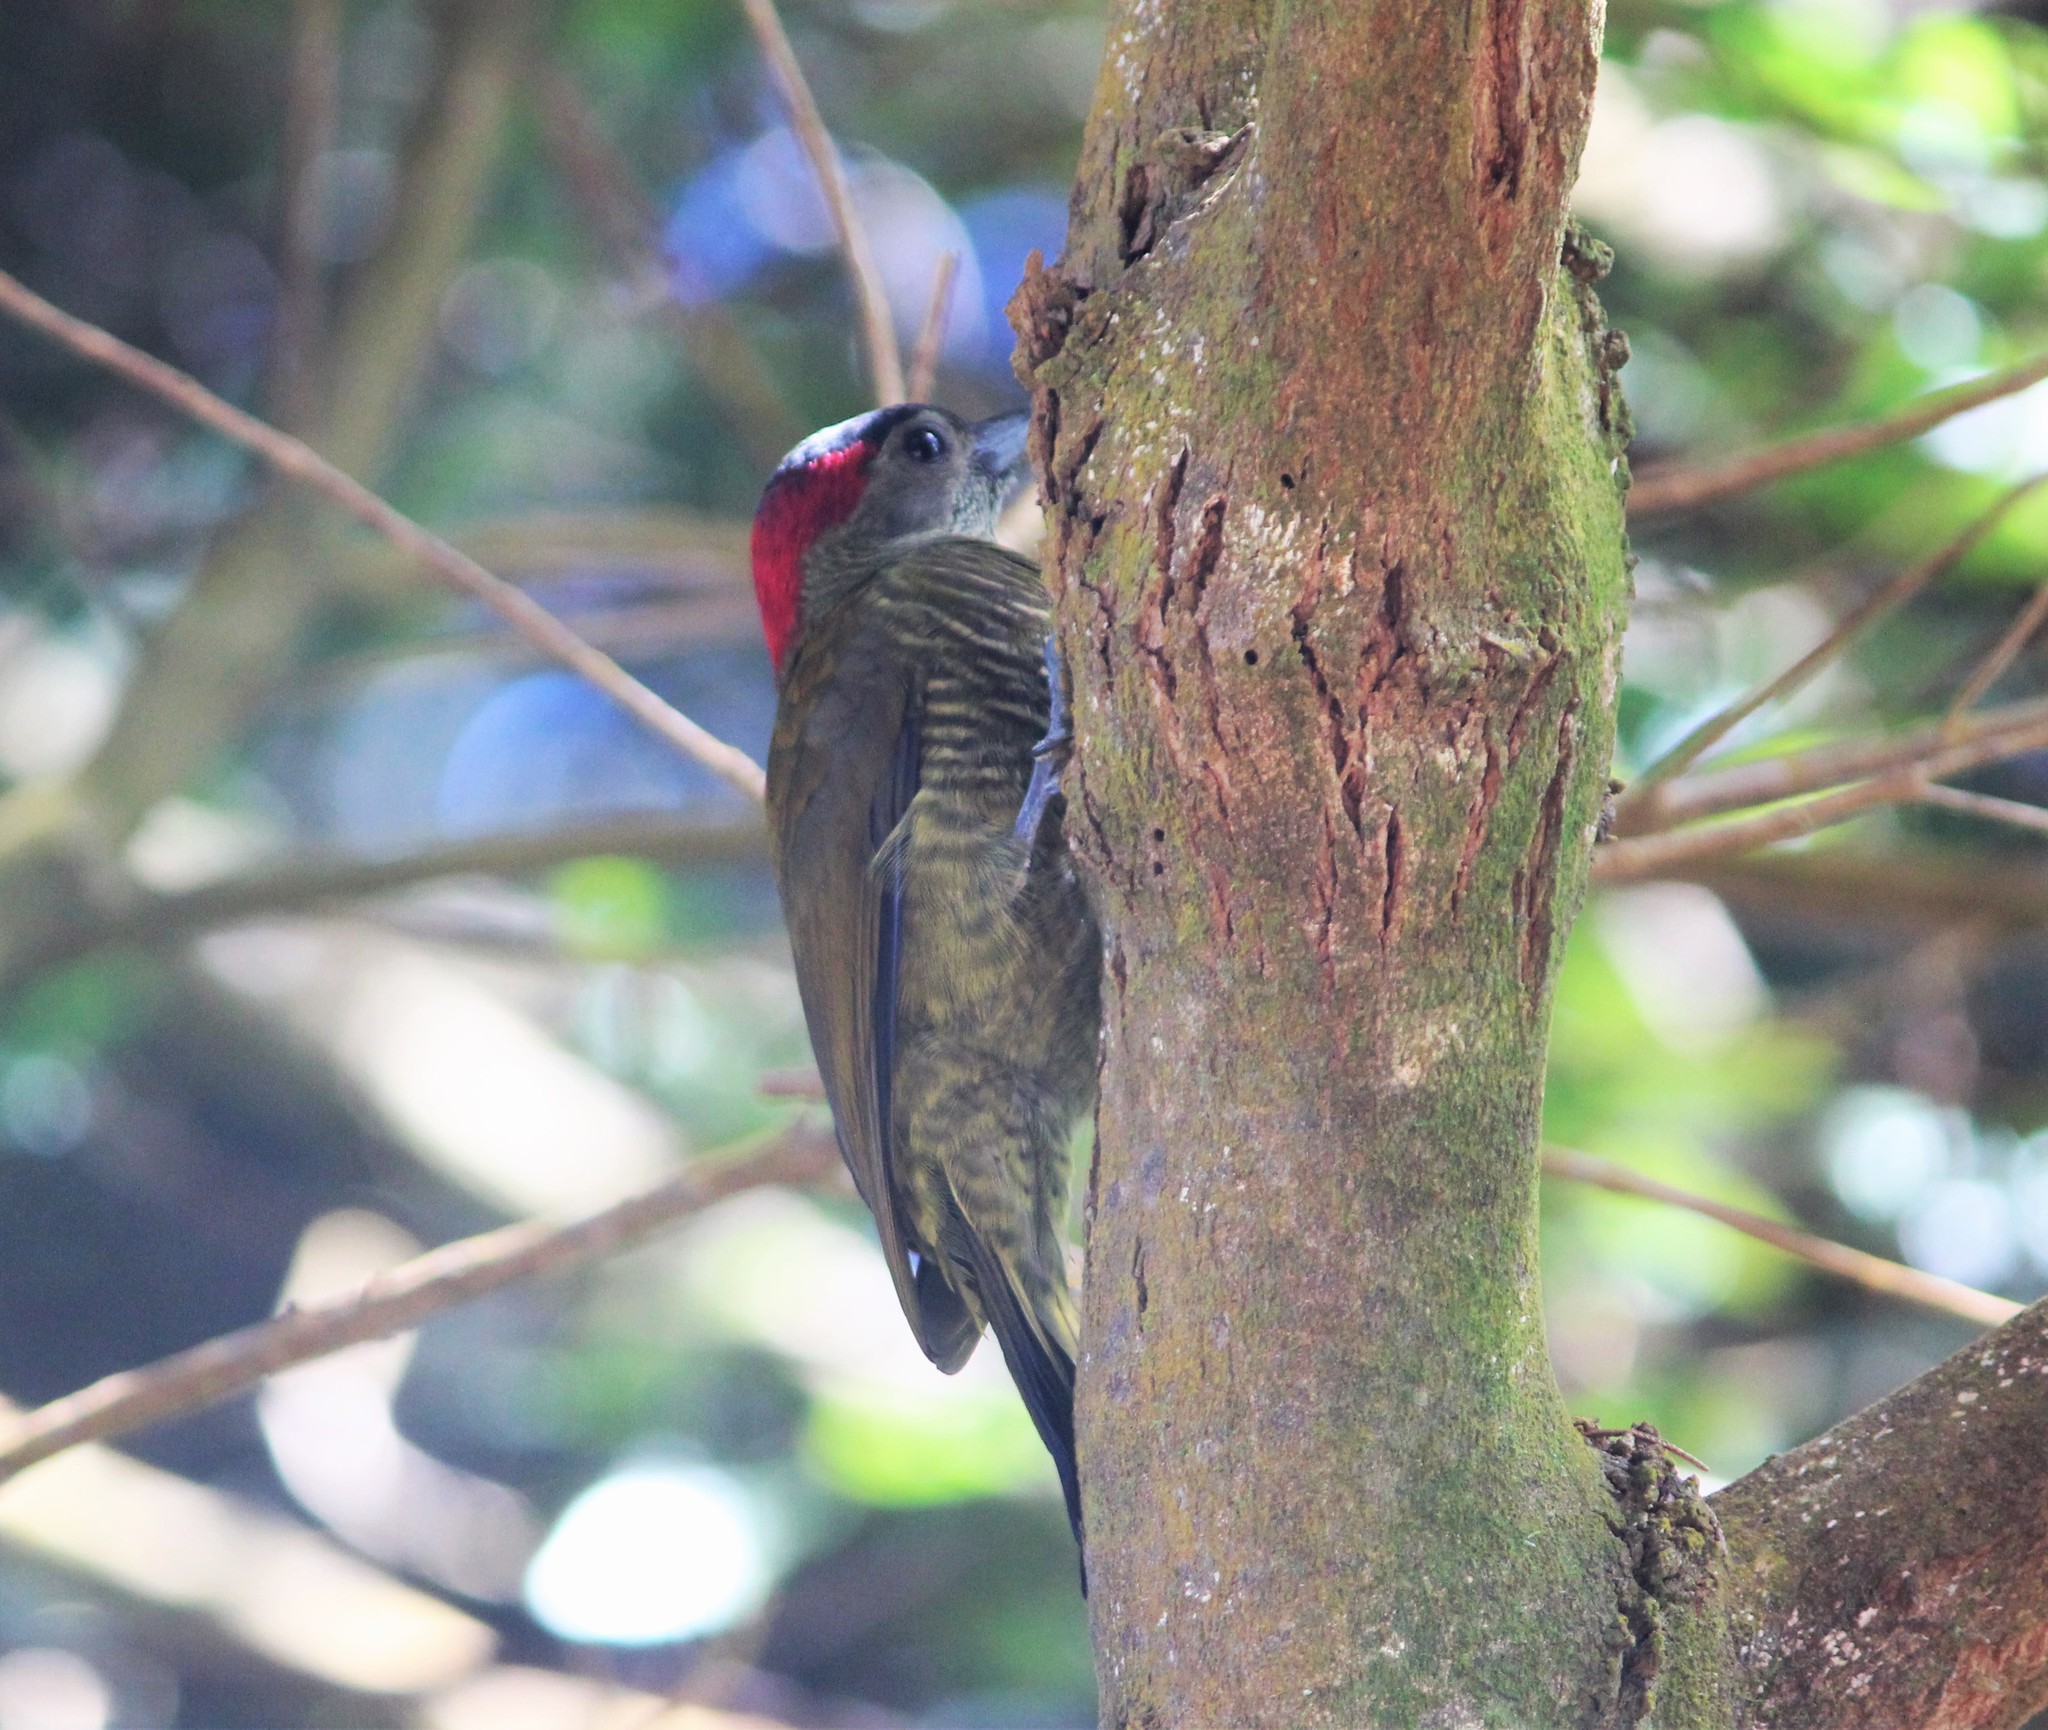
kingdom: Animalia
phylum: Chordata
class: Aves
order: Piciformes
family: Picidae
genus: Colaptes
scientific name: Colaptes rubiginosus
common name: Golden-olive woodpecker
